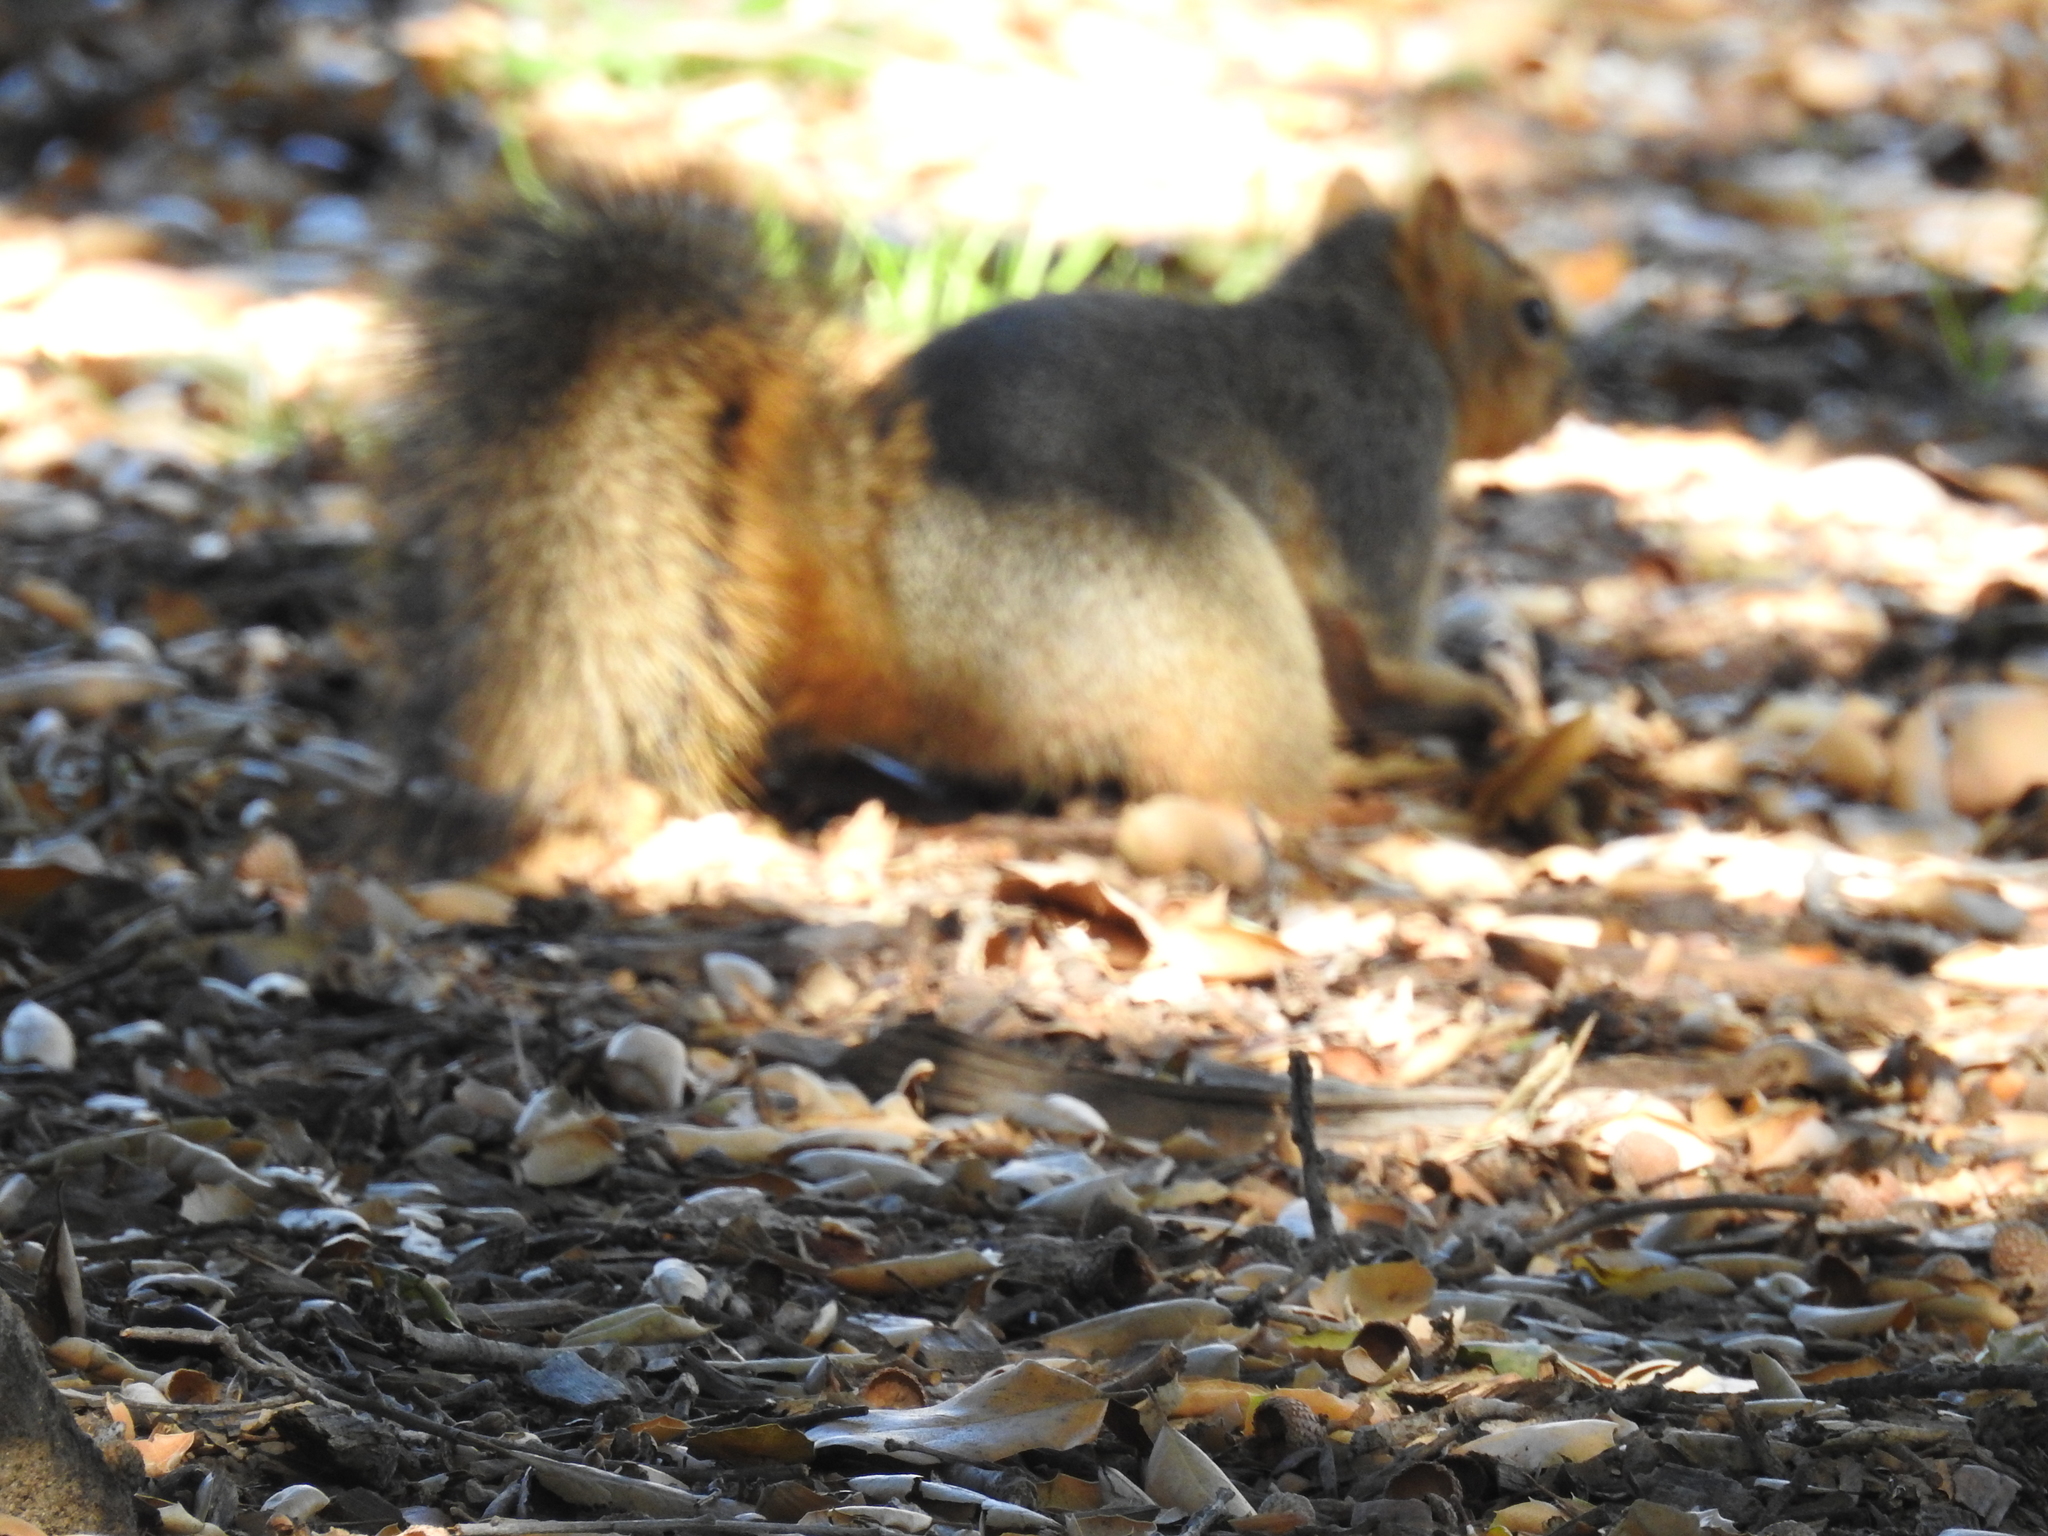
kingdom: Animalia
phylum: Chordata
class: Mammalia
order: Rodentia
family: Sciuridae
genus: Sciurus
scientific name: Sciurus niger
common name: Fox squirrel
